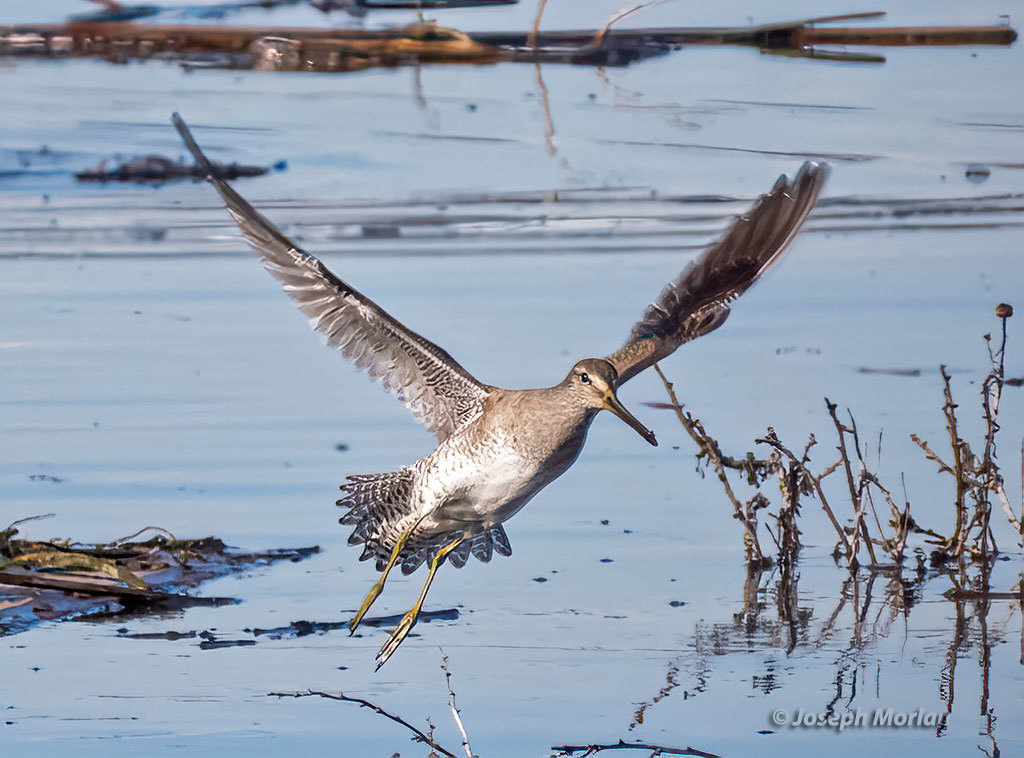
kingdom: Animalia
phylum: Chordata
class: Aves
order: Charadriiformes
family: Scolopacidae
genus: Limnodromus
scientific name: Limnodromus griseus
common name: Short-billed dowitcher
